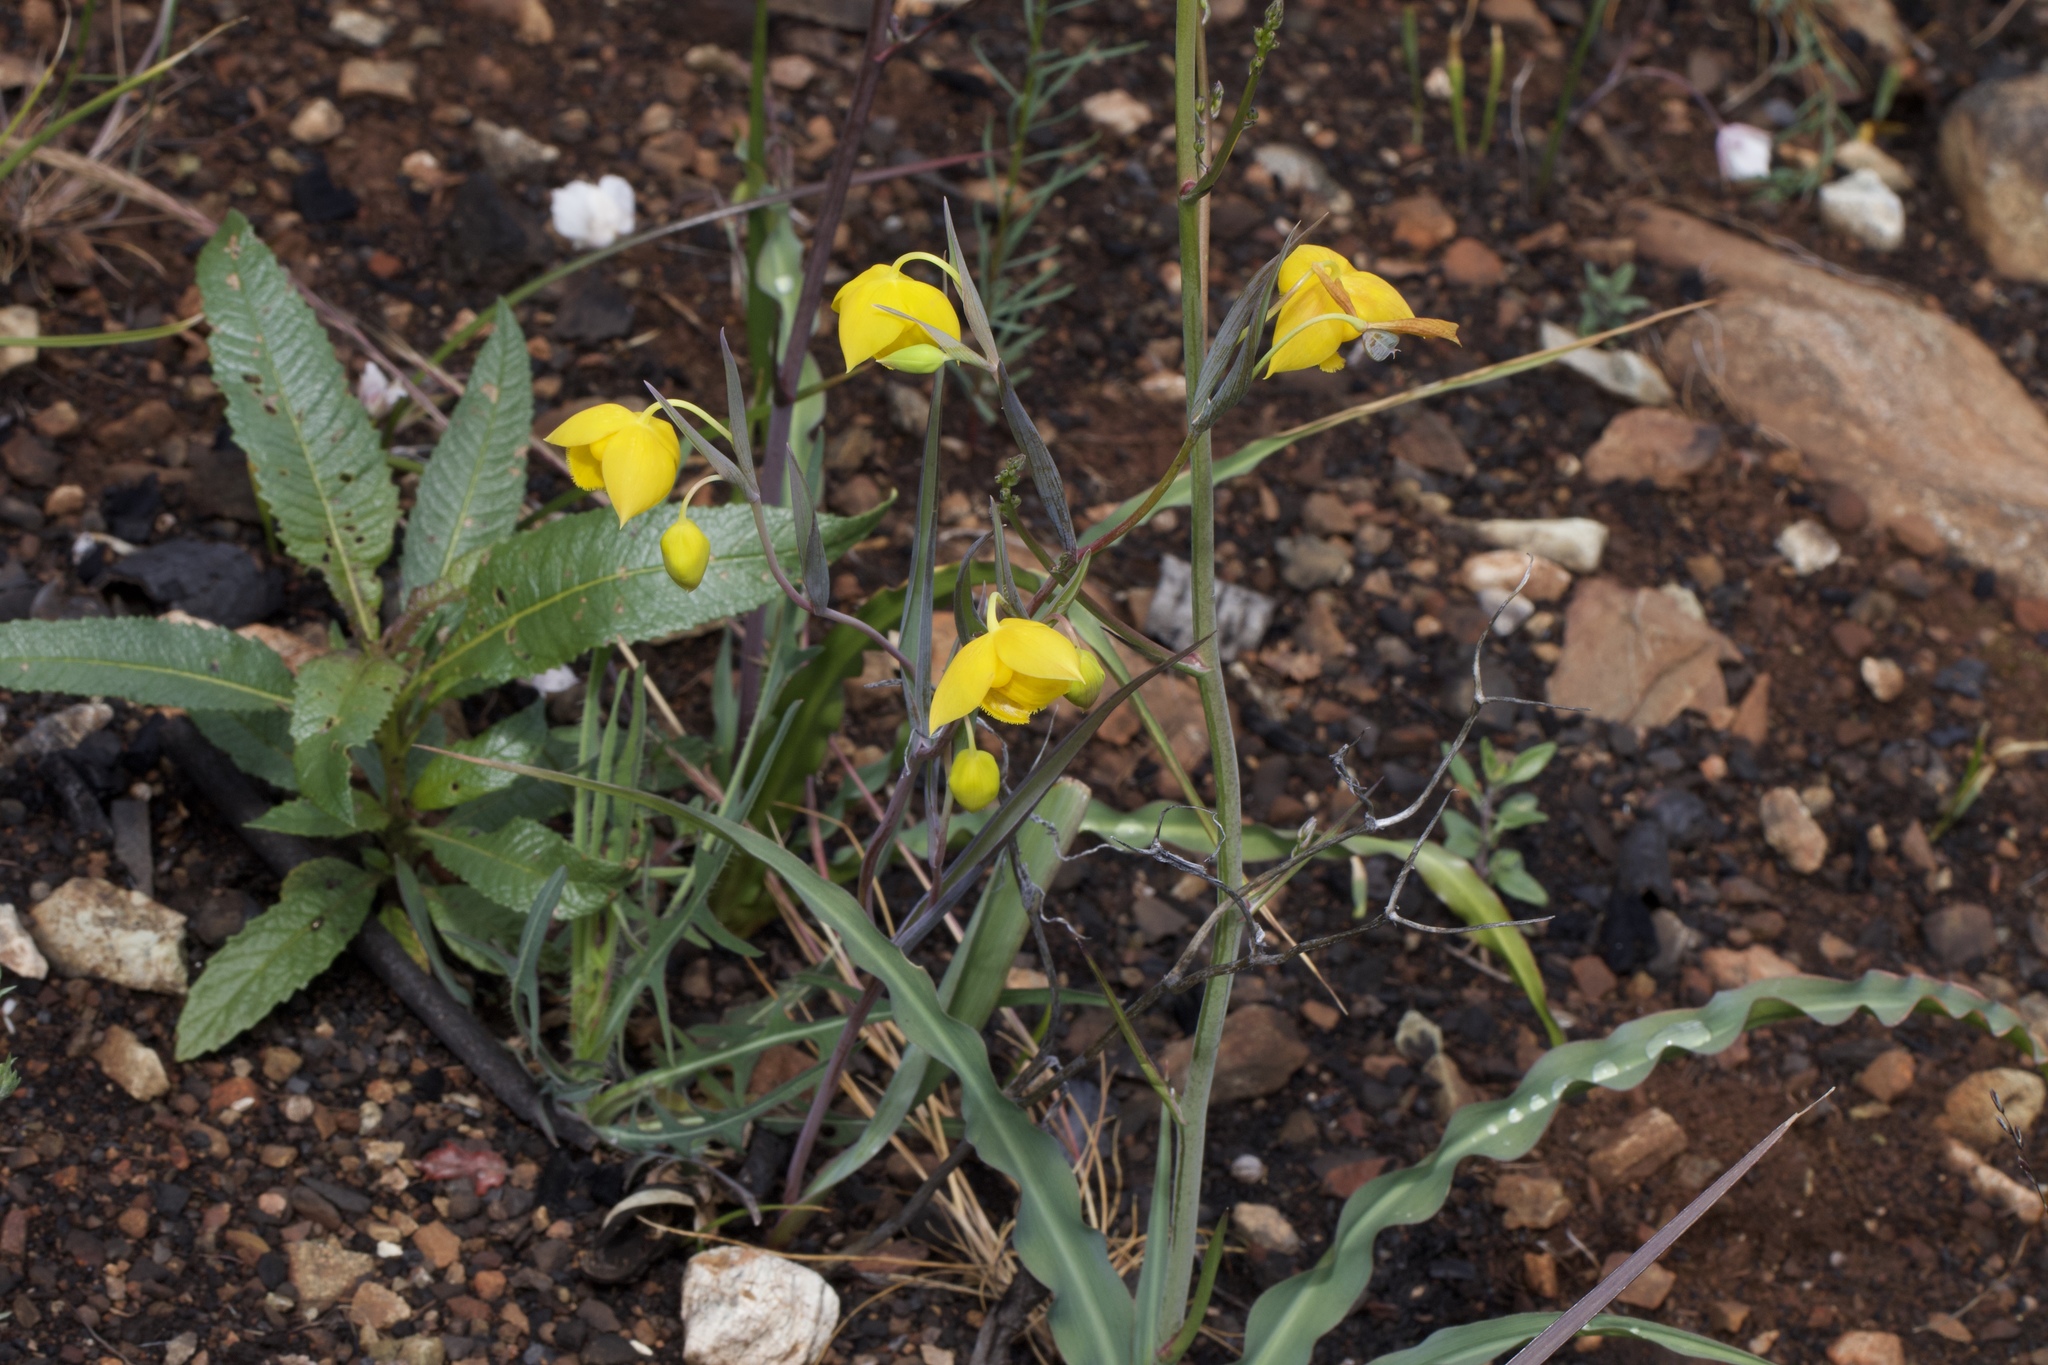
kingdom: Plantae
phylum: Tracheophyta
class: Liliopsida
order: Liliales
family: Liliaceae
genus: Calochortus
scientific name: Calochortus amabilis
